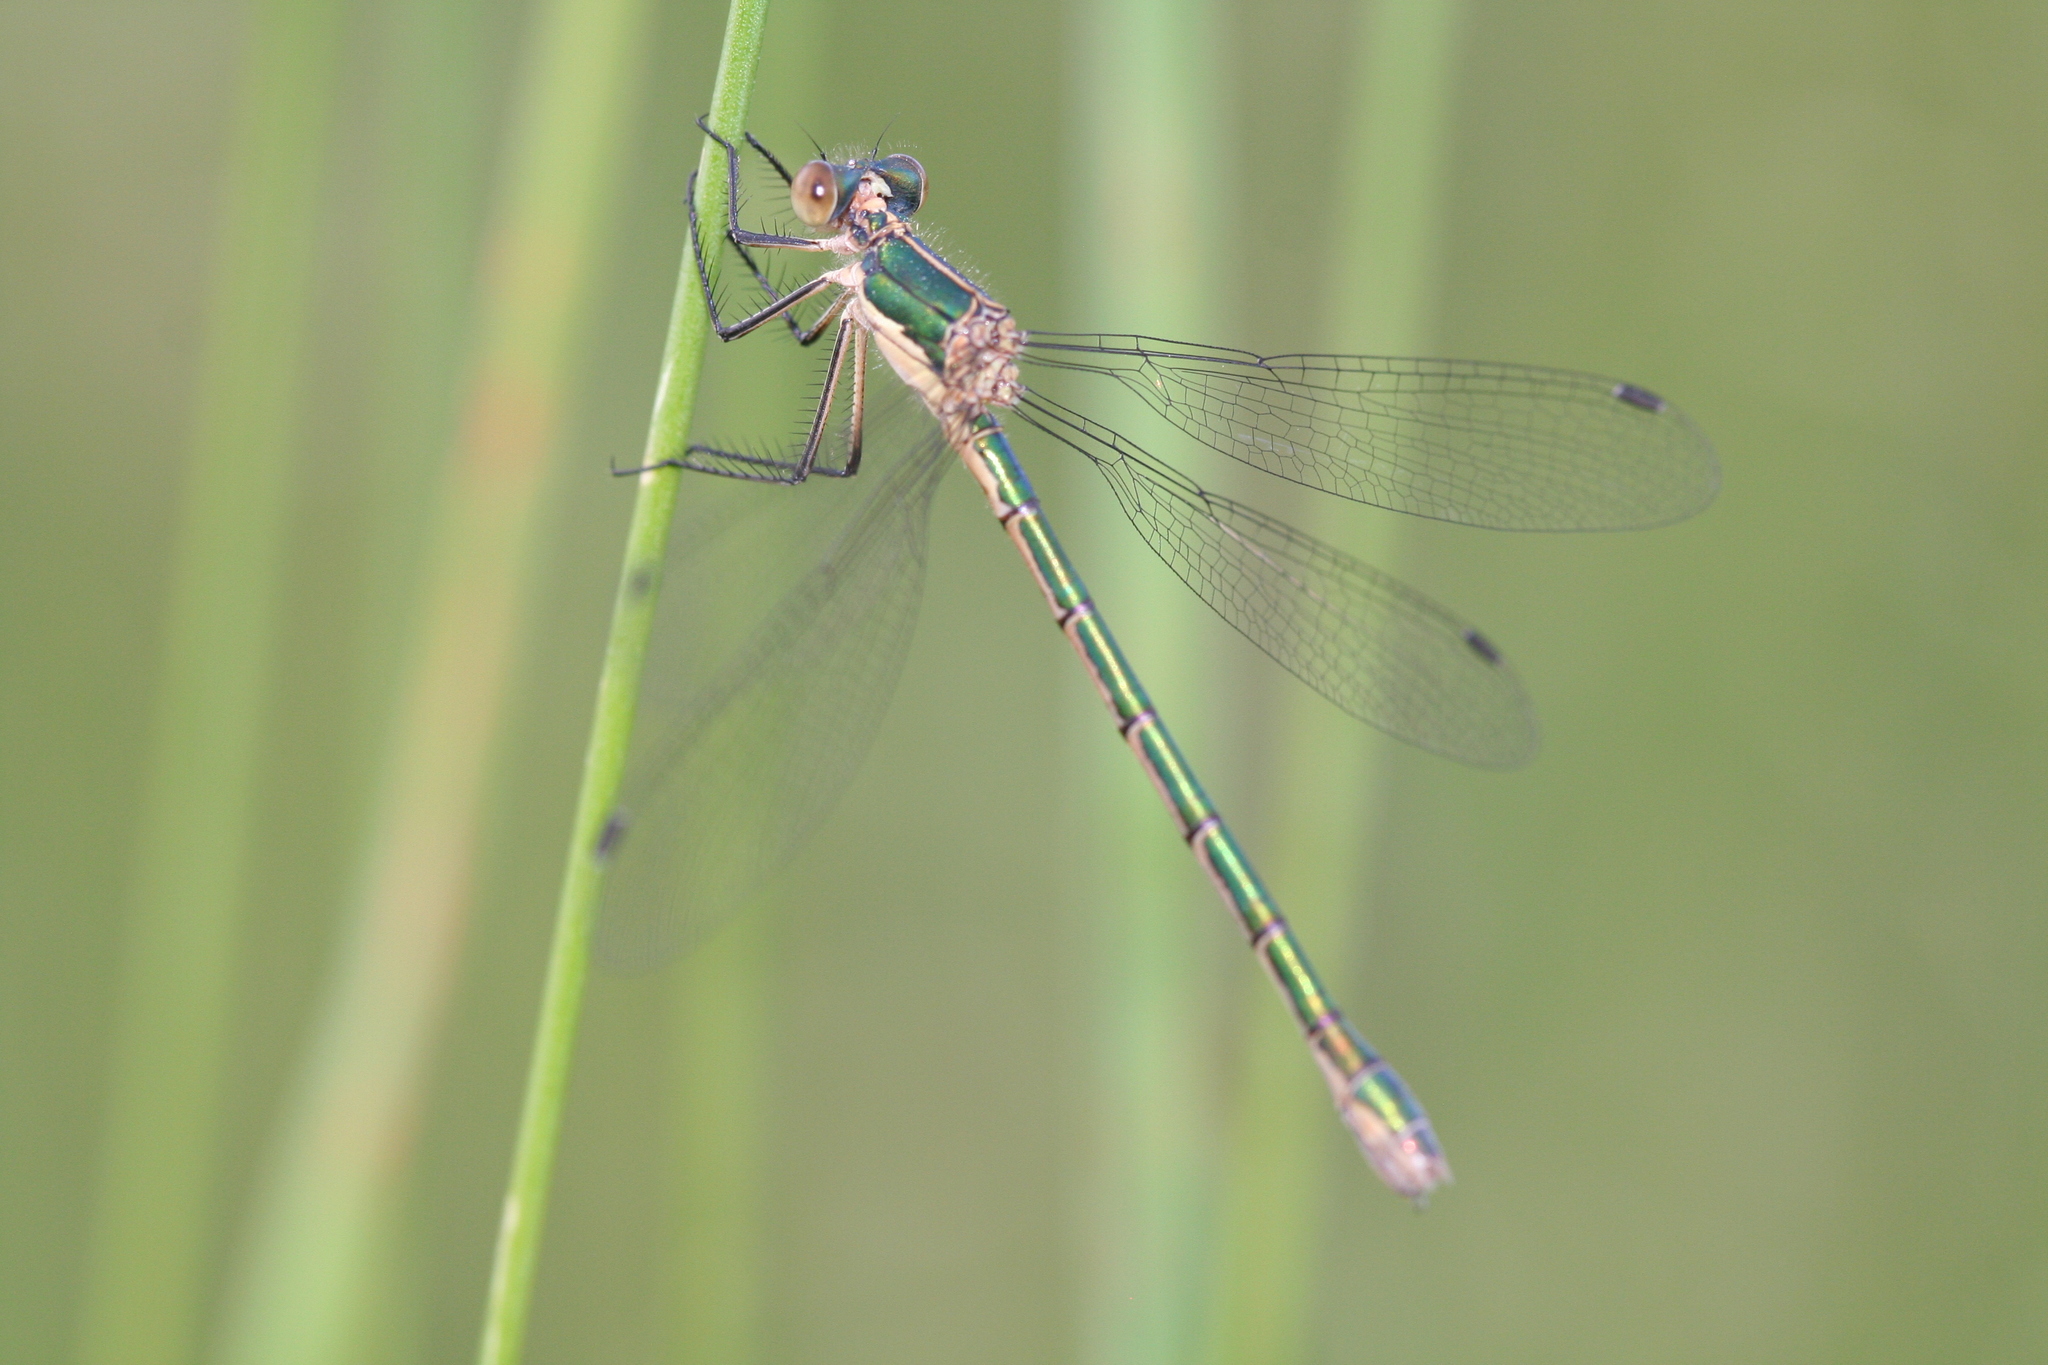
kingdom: Animalia
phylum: Arthropoda
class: Insecta
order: Odonata
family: Lestidae
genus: Lestes
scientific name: Lestes dryas
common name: Scarce emerald damselfly
